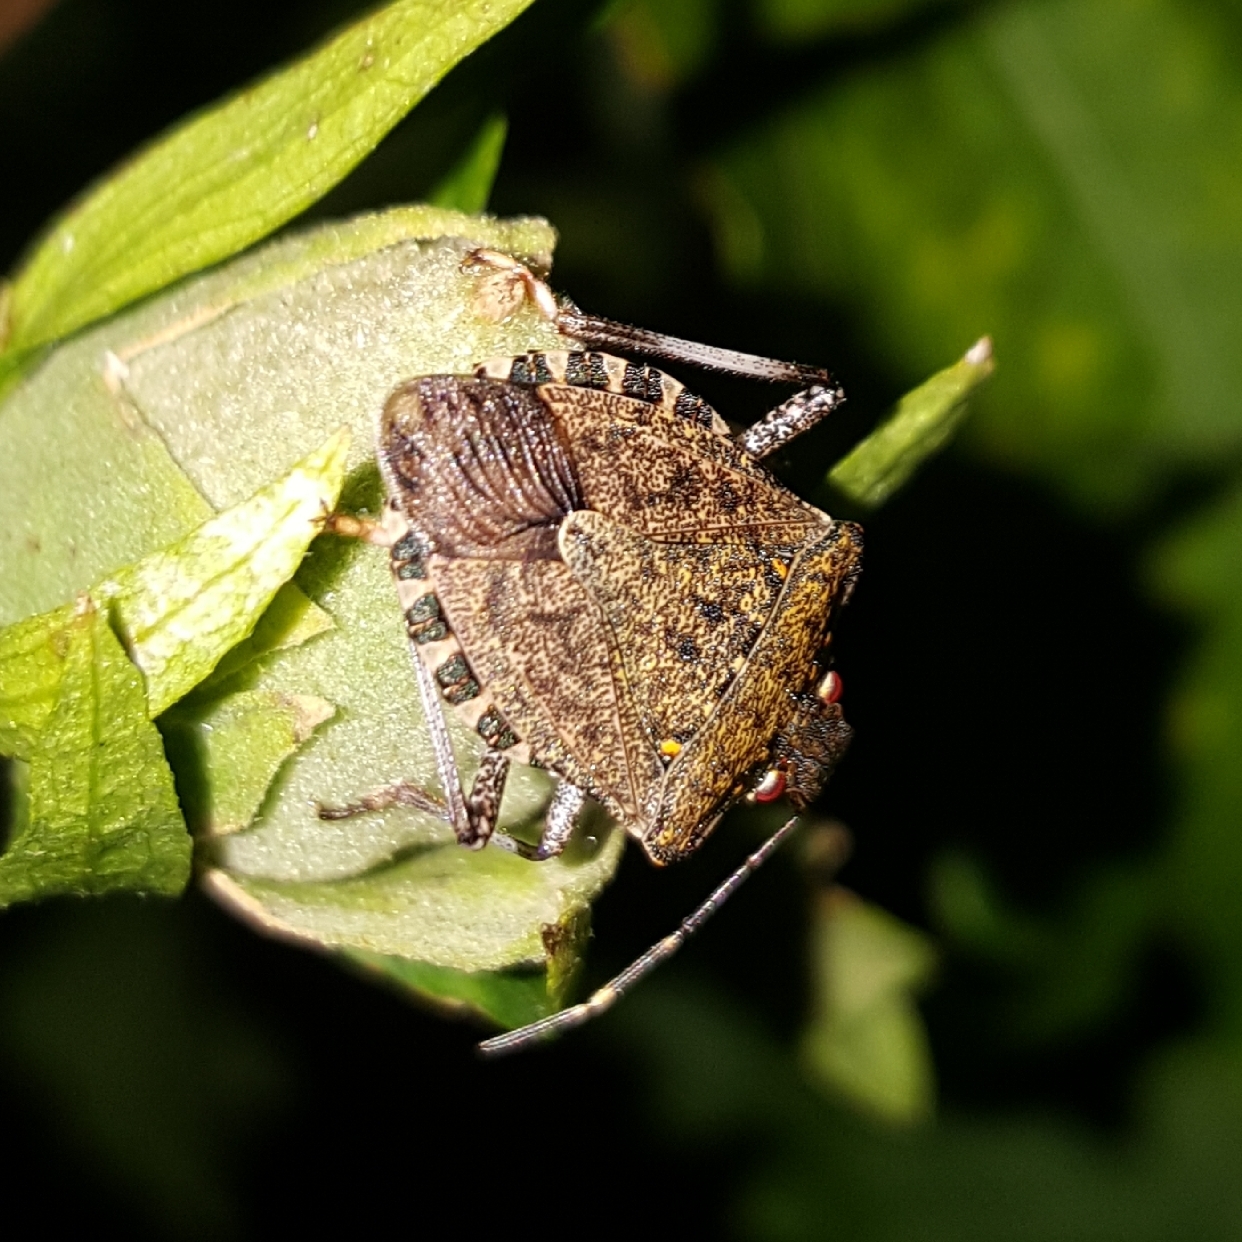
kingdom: Animalia
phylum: Arthropoda
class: Insecta
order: Hemiptera
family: Pentatomidae
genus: Halyomorpha
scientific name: Halyomorpha halys
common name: Brown marmorated stink bug
